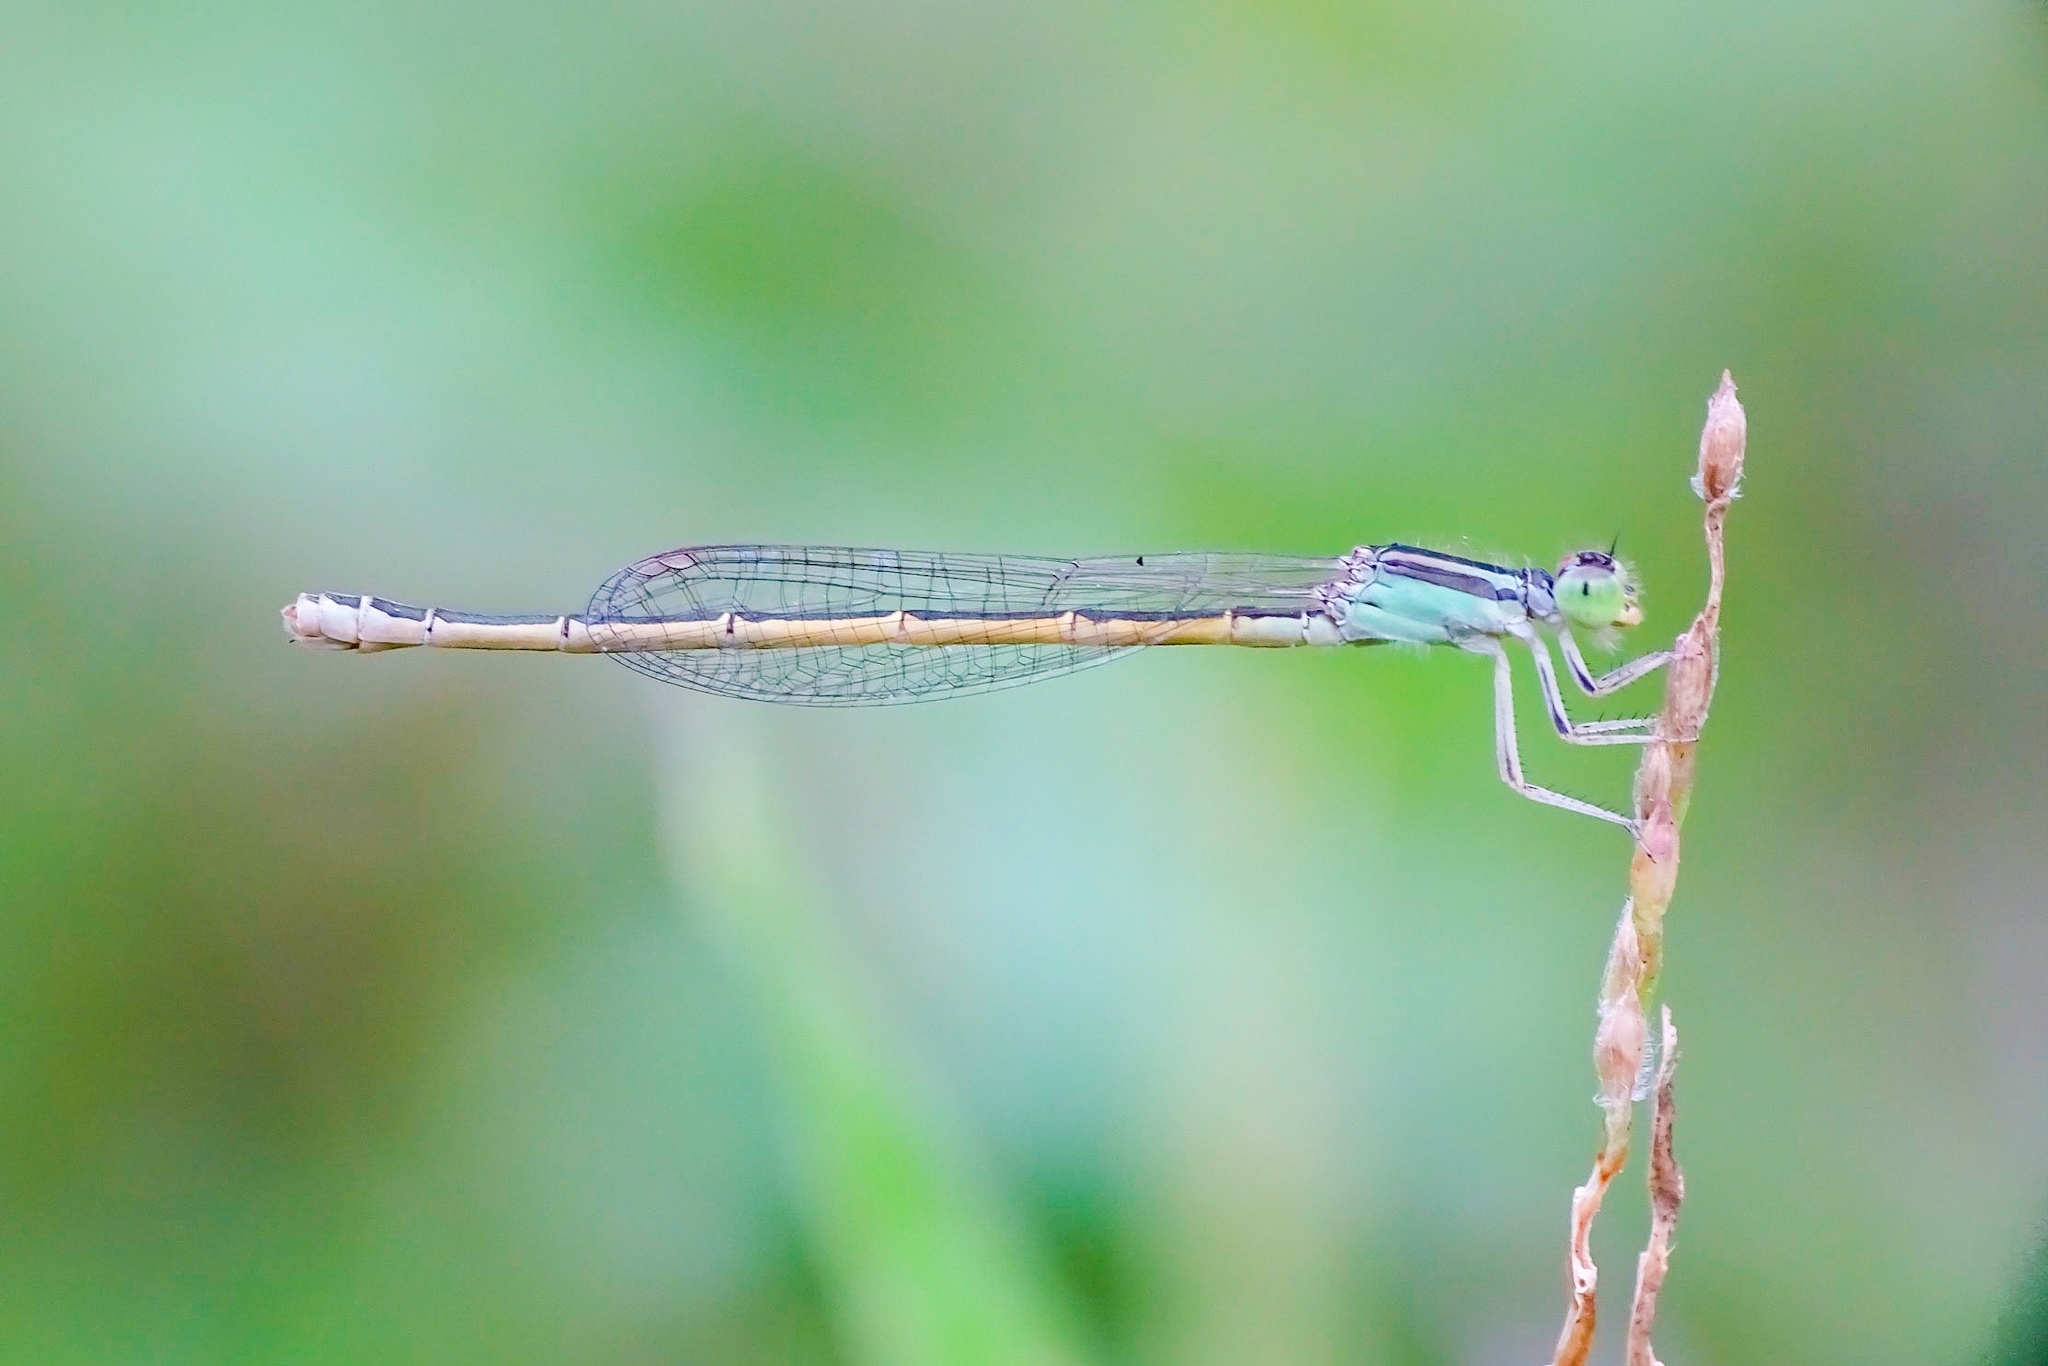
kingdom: Animalia
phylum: Arthropoda
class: Insecta
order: Odonata
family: Coenagrionidae
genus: Ischnura
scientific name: Ischnura rubilio
